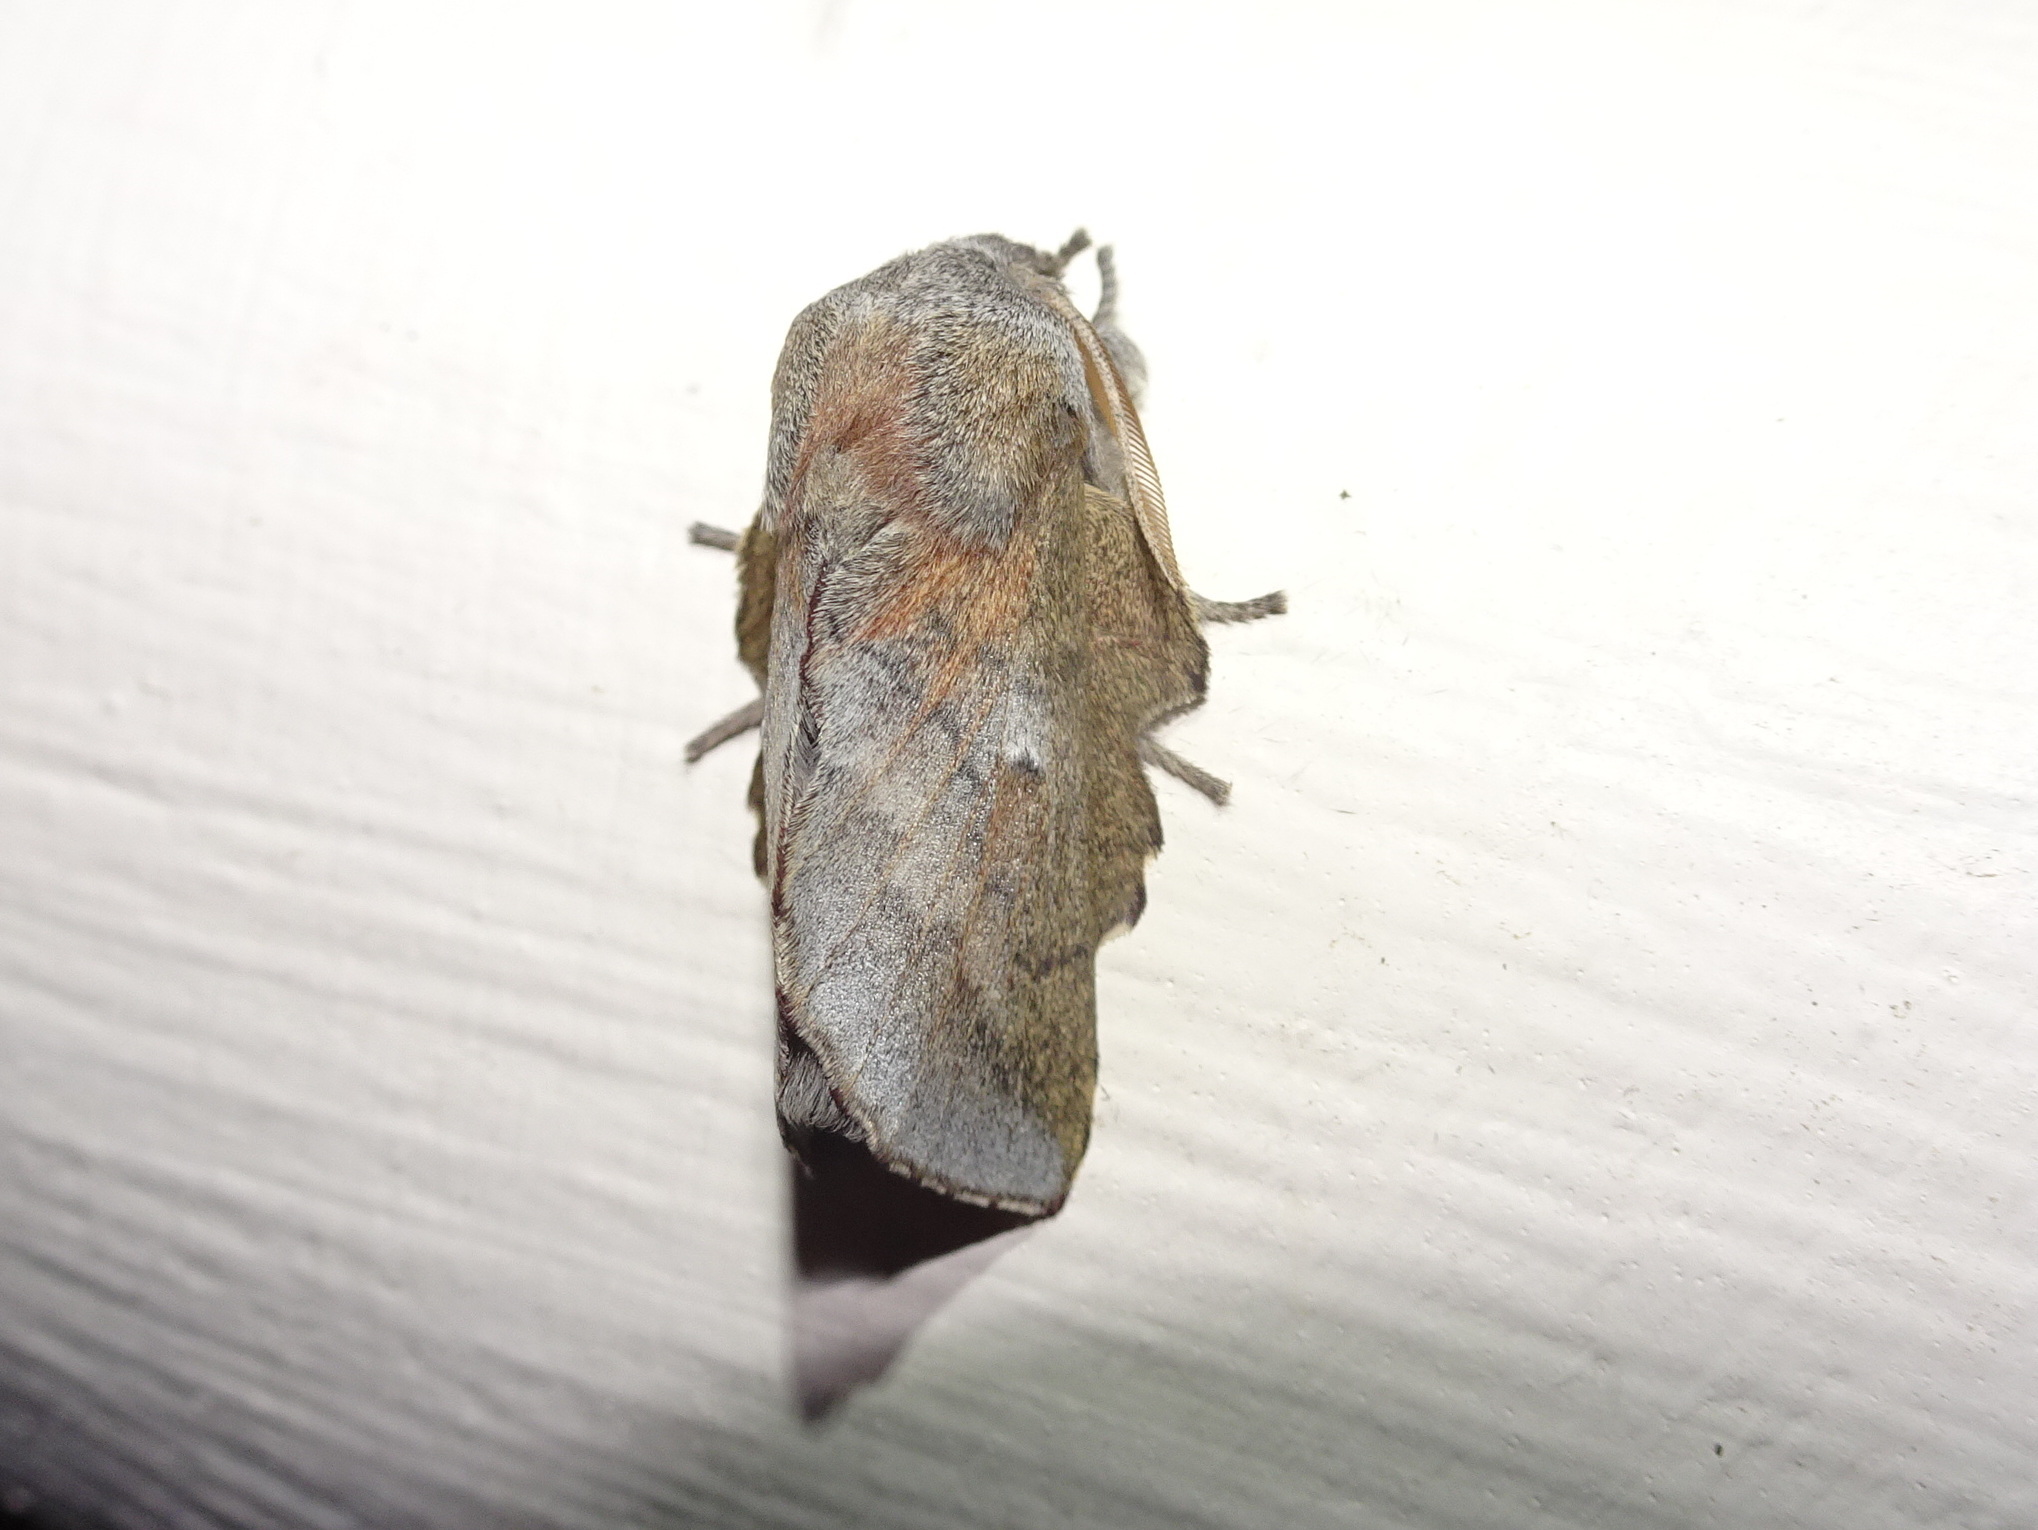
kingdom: Animalia
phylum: Arthropoda
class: Insecta
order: Lepidoptera
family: Lasiocampidae
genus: Phyllodesma
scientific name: Phyllodesma americana
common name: American lappet moth
